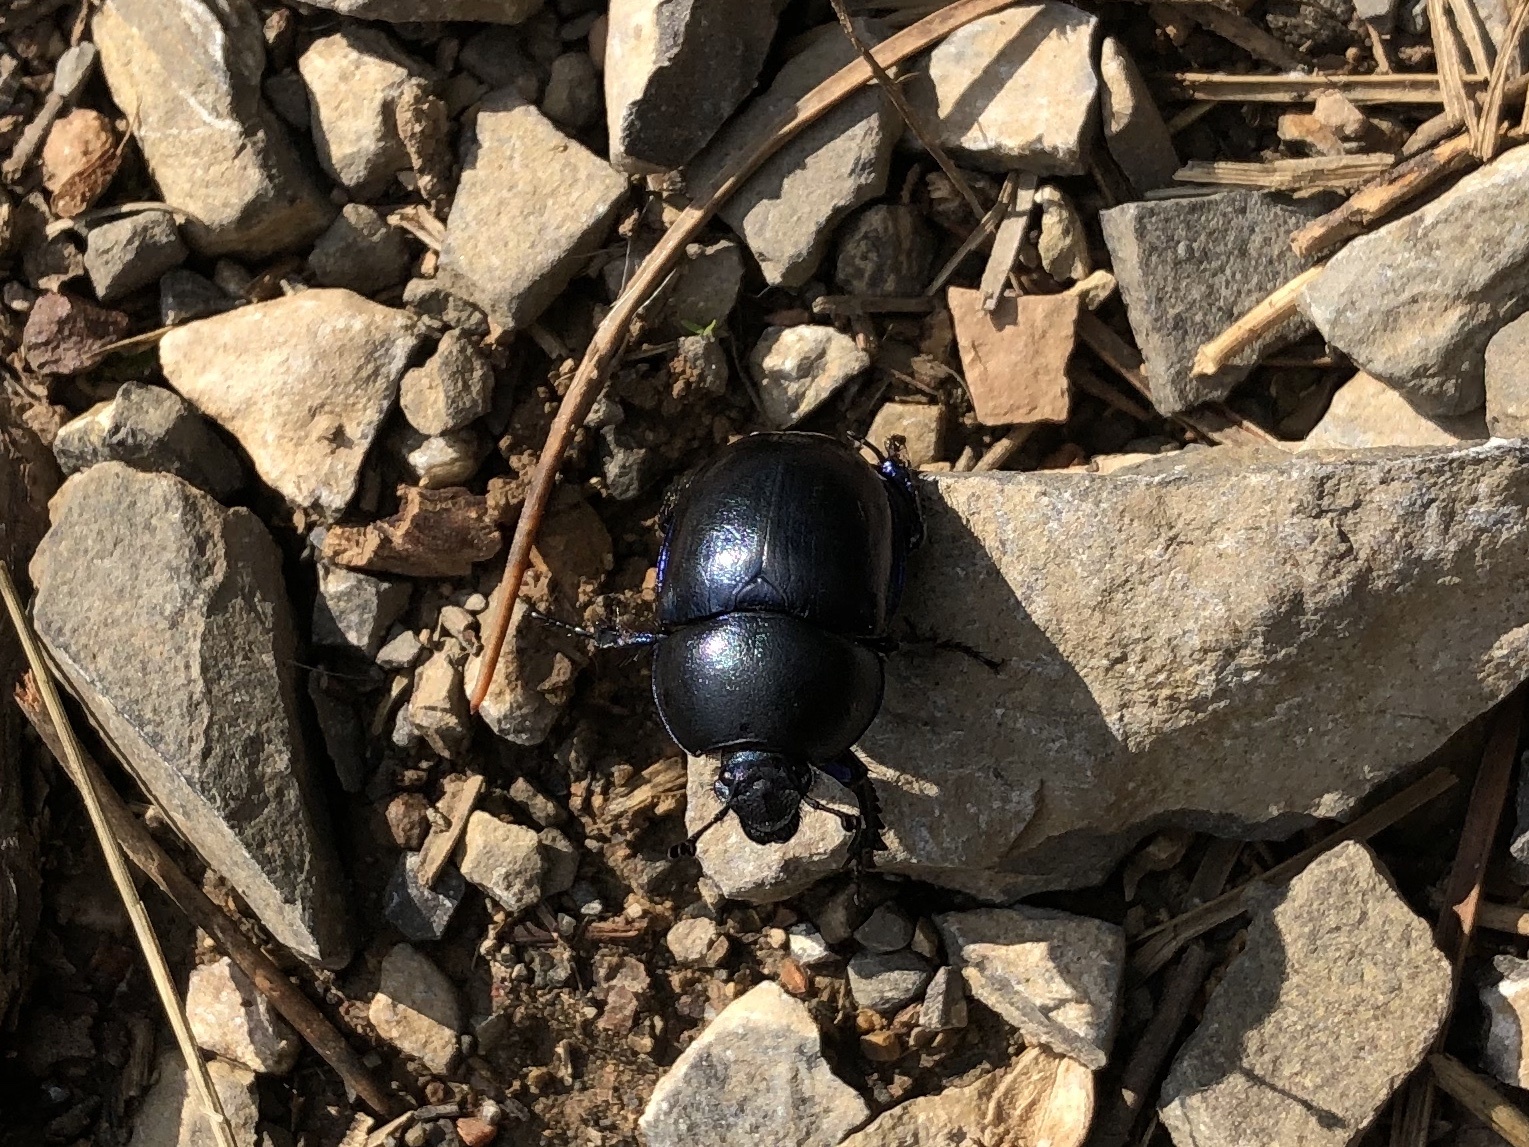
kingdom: Animalia
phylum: Arthropoda
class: Insecta
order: Coleoptera
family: Geotrupidae
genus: Trypocopris
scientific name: Trypocopris vernalis
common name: Spring dumbledor
